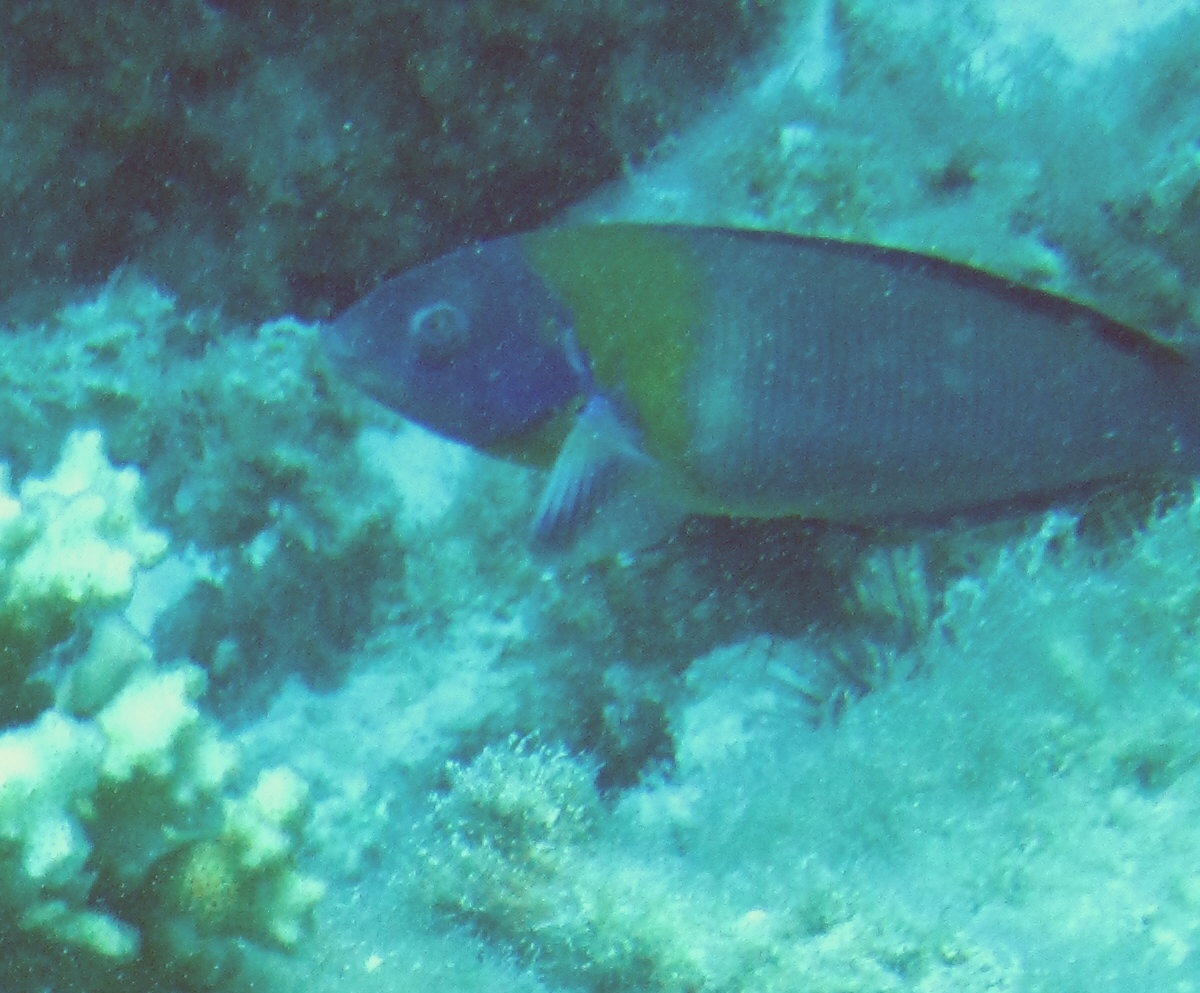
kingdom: Animalia
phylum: Chordata
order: Perciformes
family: Labridae
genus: Thalassoma
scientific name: Thalassoma duperrey
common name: Saddle wrasse
